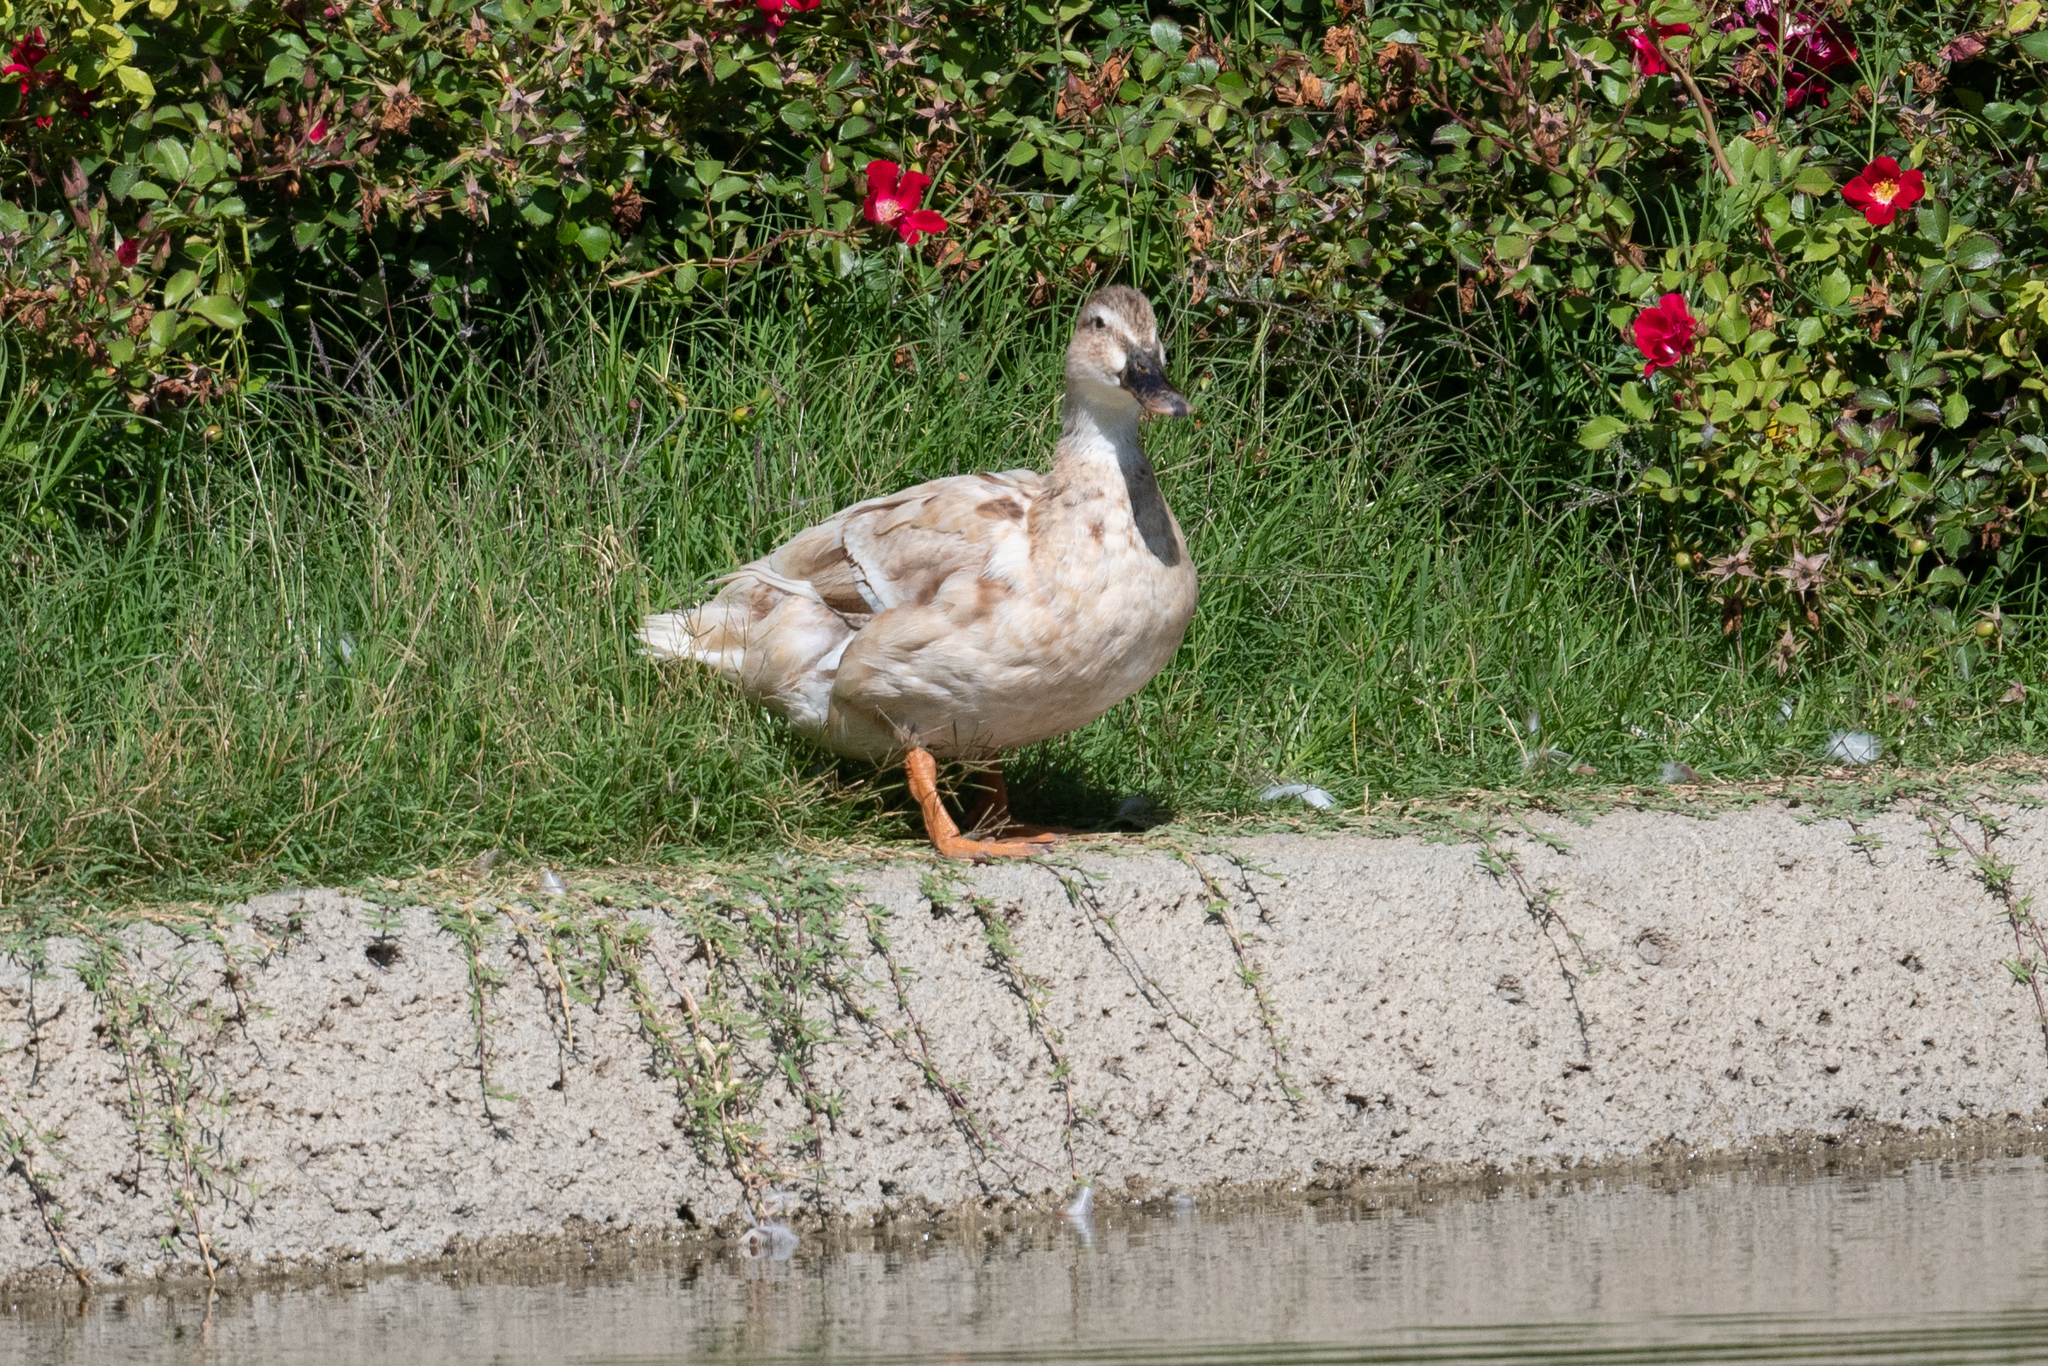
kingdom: Animalia
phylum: Chordata
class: Aves
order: Anseriformes
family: Anatidae
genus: Anas
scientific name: Anas platyrhynchos
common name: Mallard
